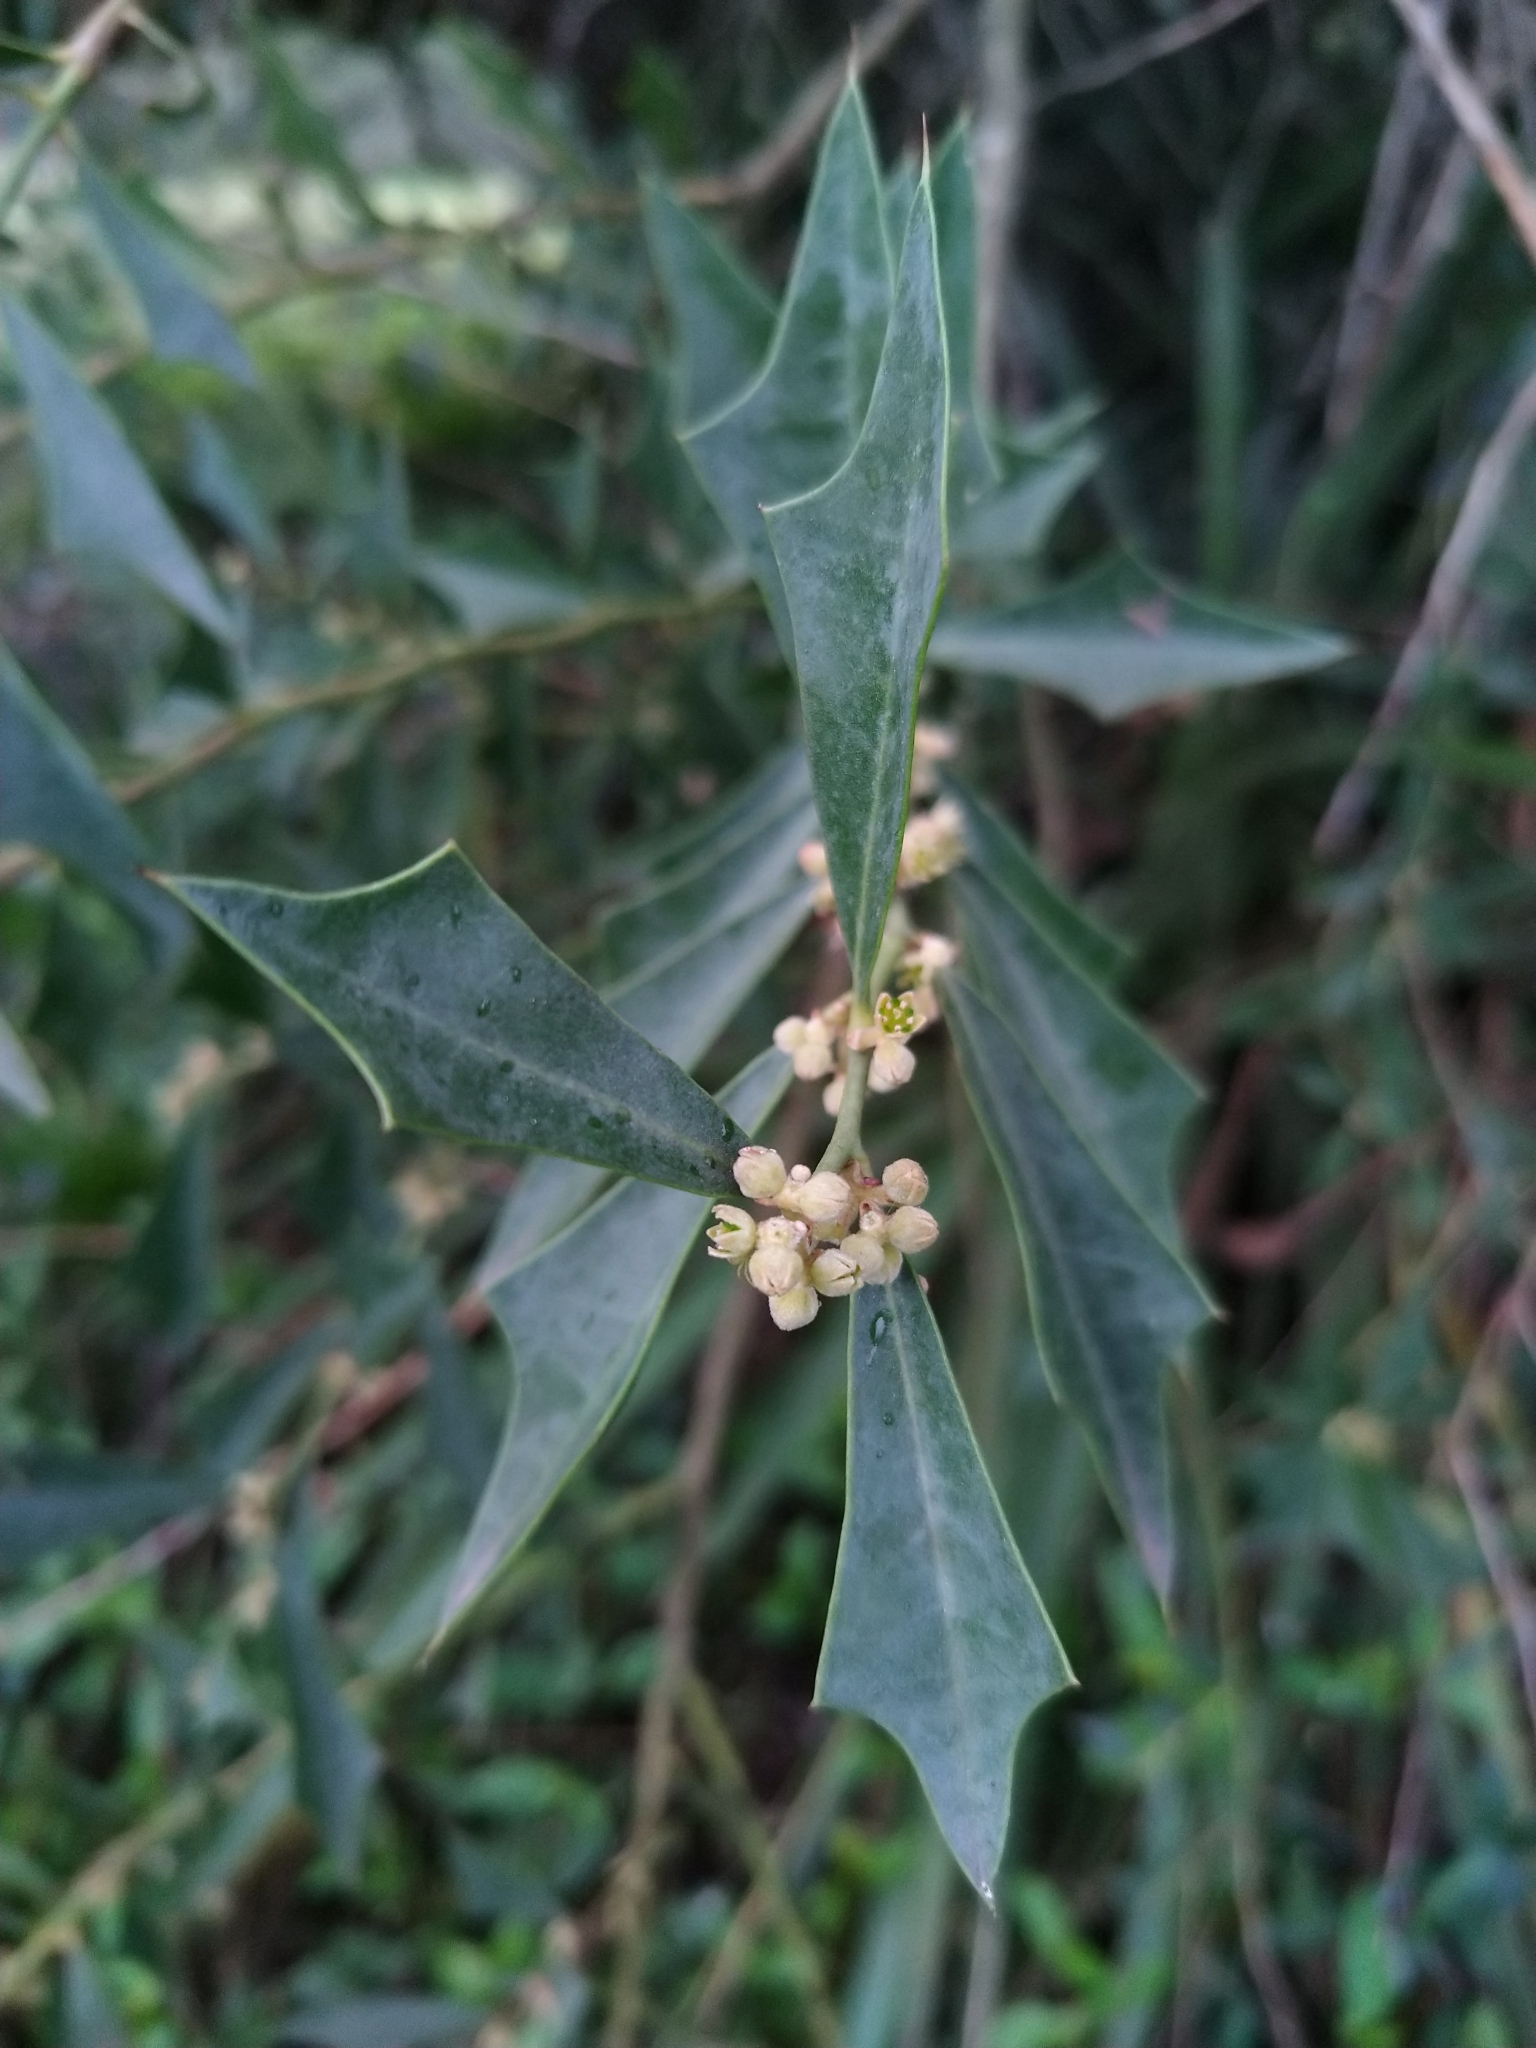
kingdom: Plantae
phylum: Tracheophyta
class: Magnoliopsida
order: Santalales
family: Cervantesiaceae
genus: Jodina
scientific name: Jodina rhombifolia
